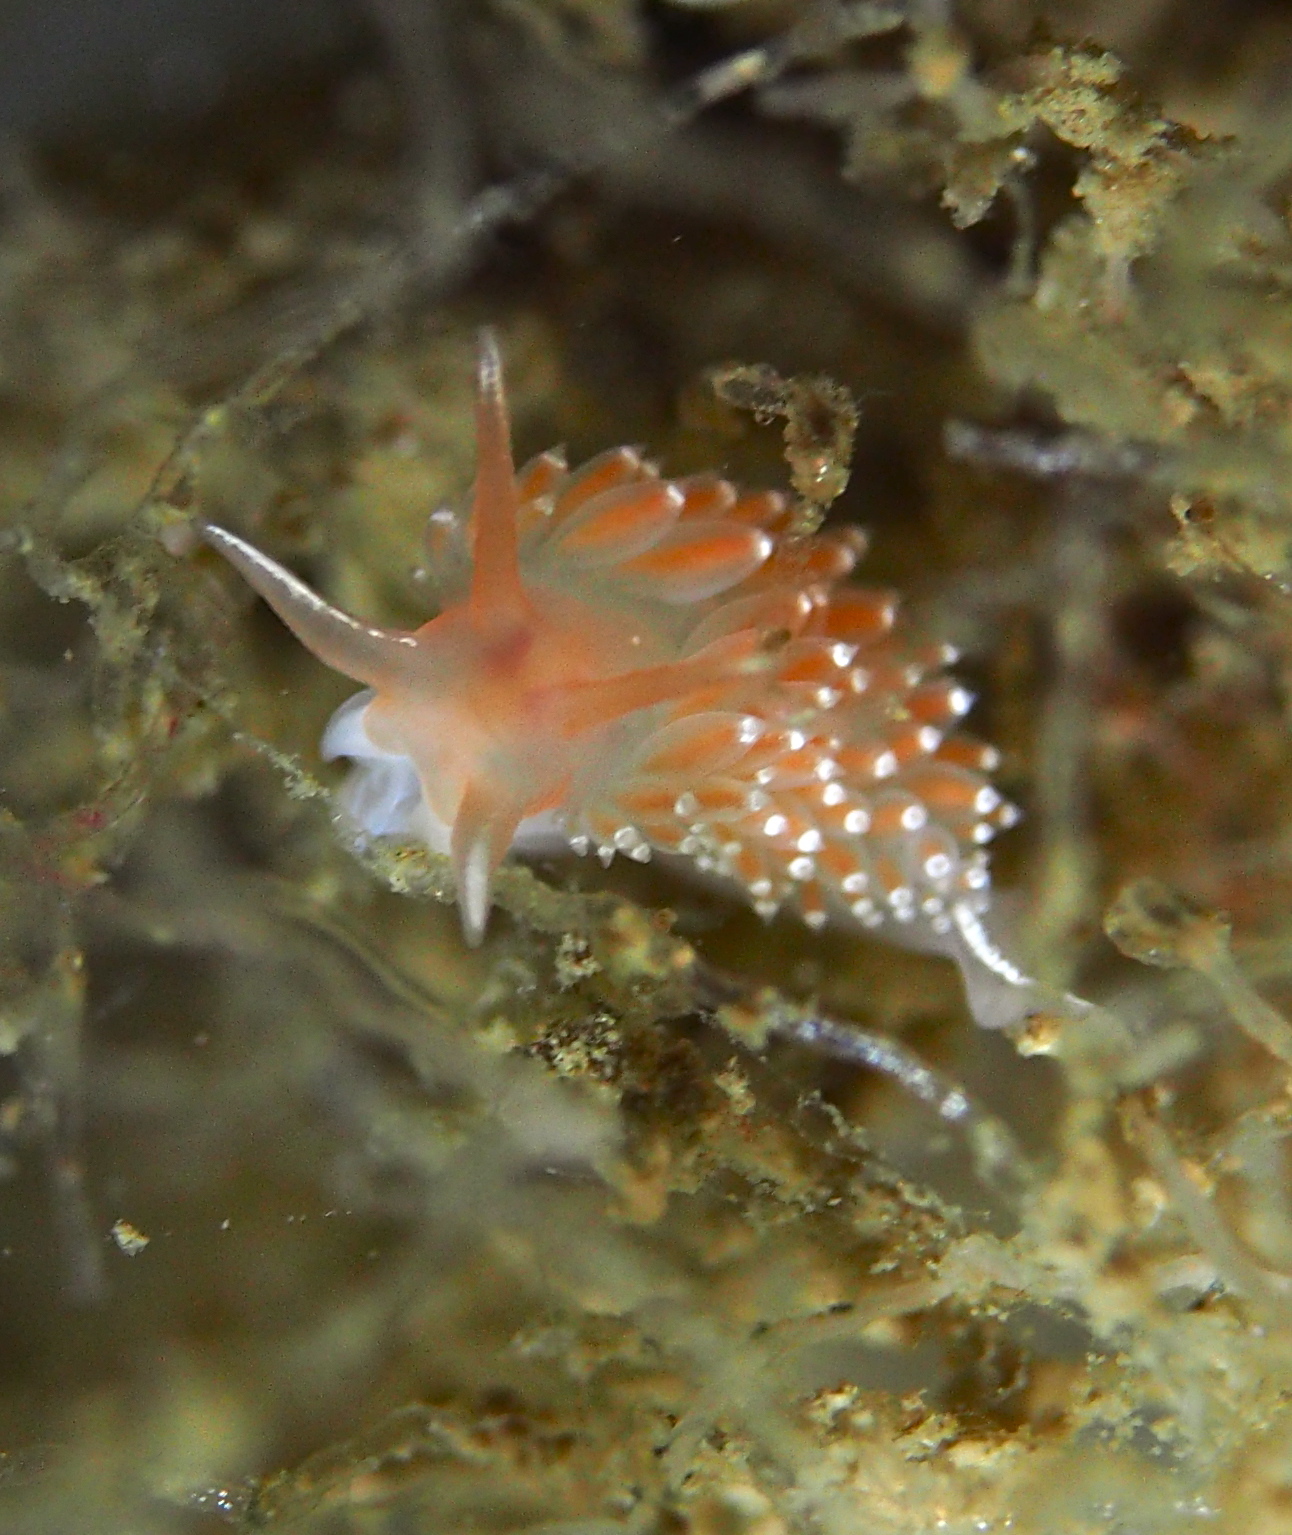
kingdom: Animalia
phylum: Mollusca
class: Gastropoda
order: Nudibranchia
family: Coryphellidae
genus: Coryphella
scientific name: Coryphella verrucosa
